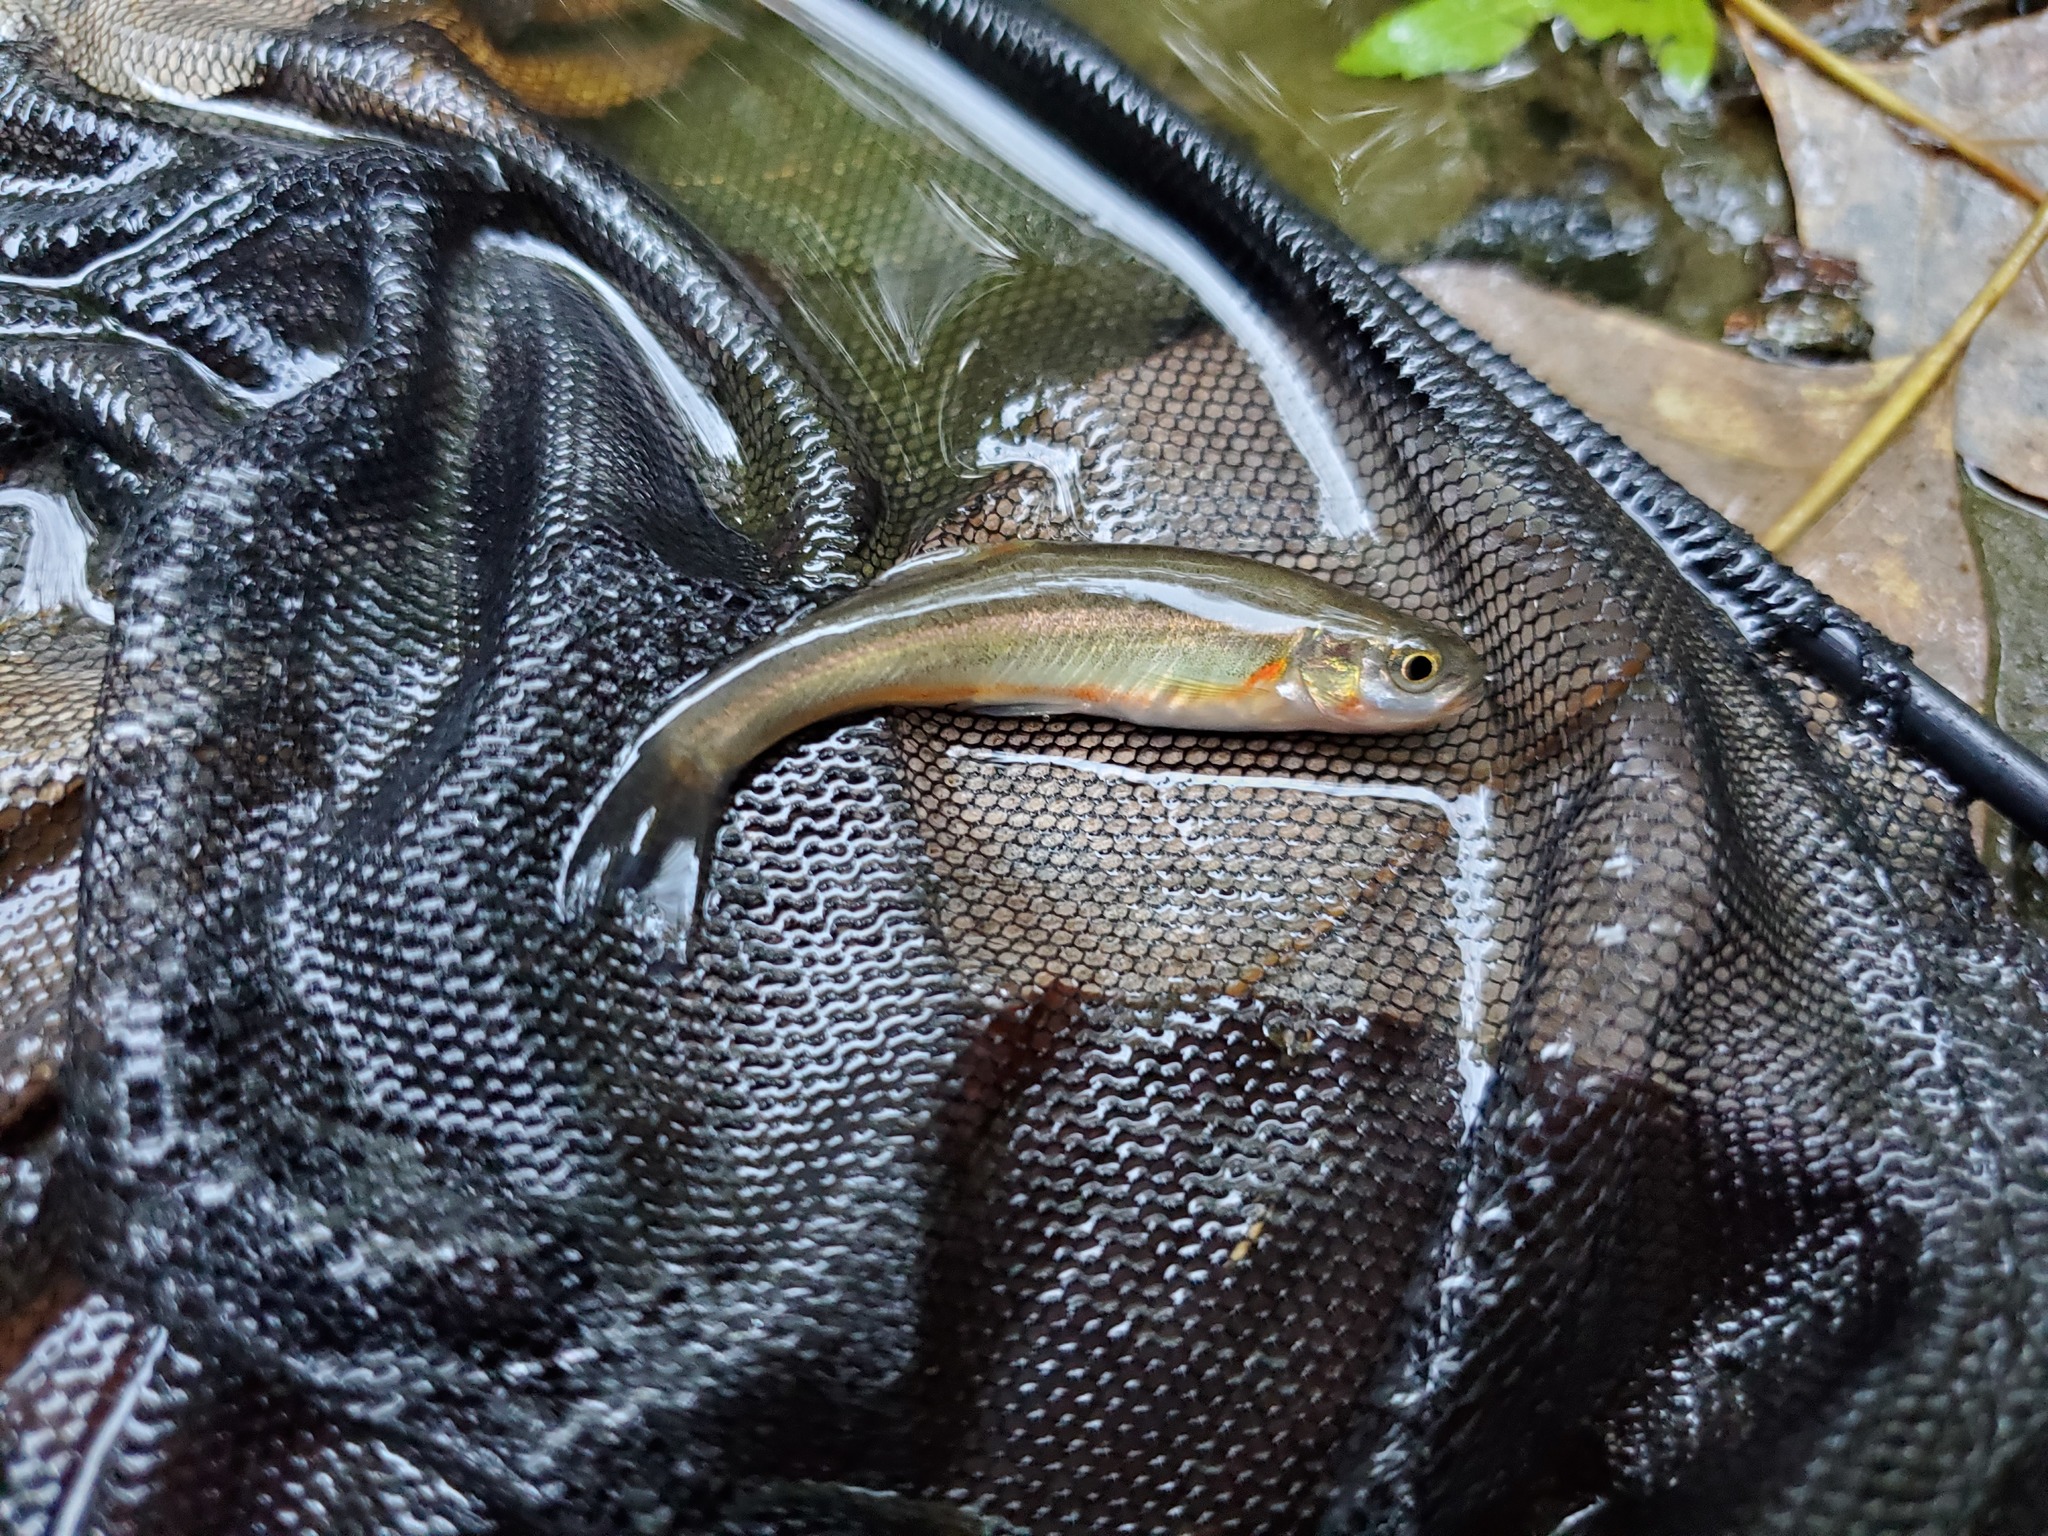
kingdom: Animalia
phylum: Chordata
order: Cypriniformes
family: Cyprinidae
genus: Chrosomus
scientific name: Chrosomus erythrogaster
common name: Southern redbelly dace
